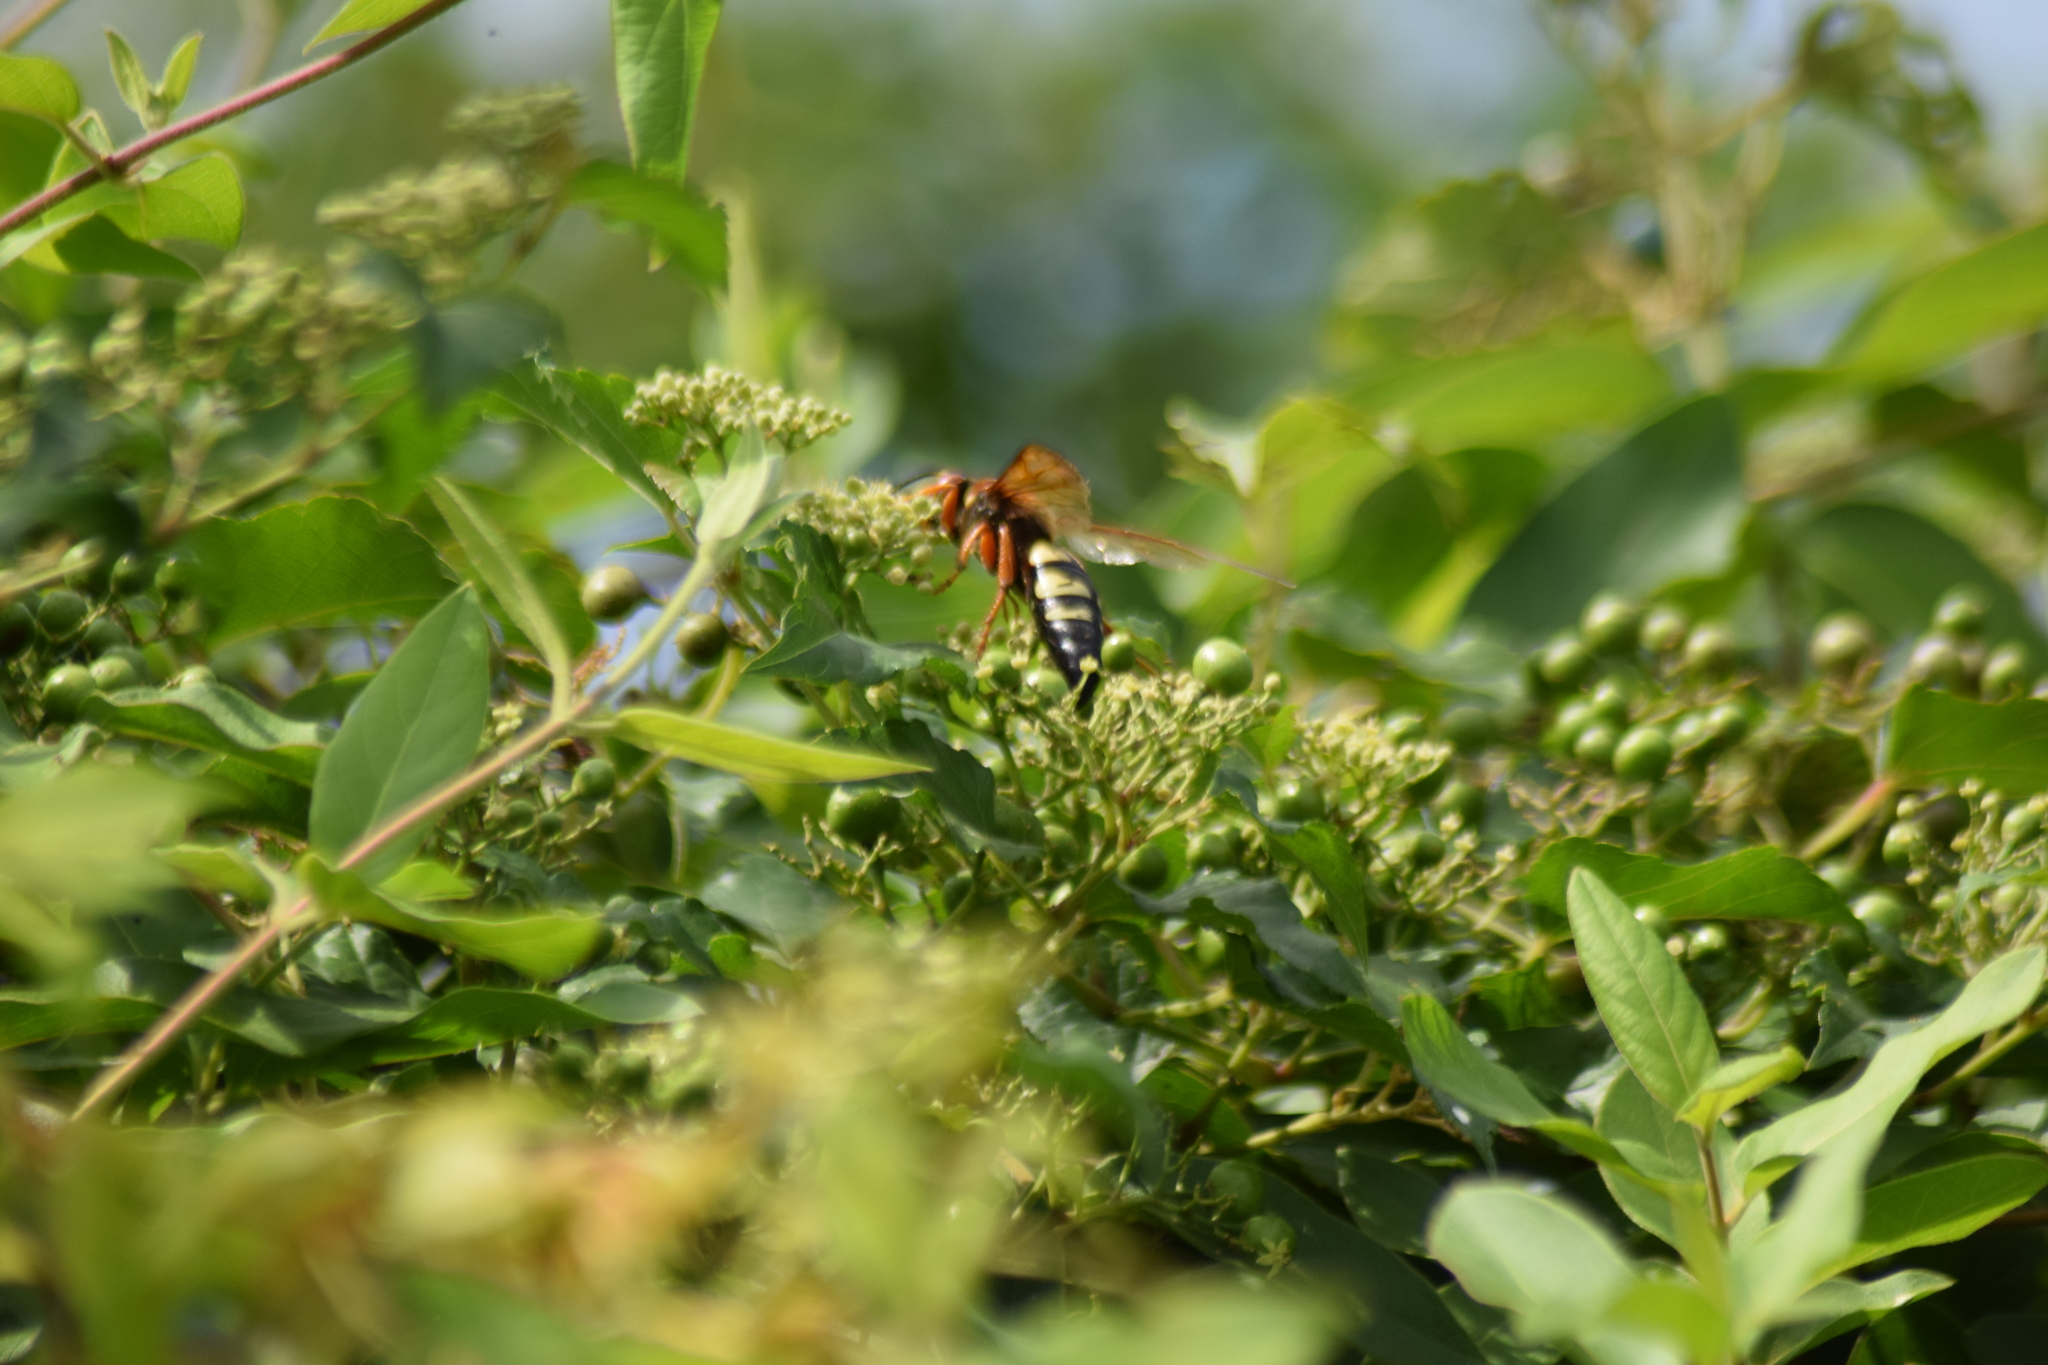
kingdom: Animalia
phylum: Arthropoda
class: Insecta
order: Hymenoptera
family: Crabronidae
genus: Sphecius
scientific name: Sphecius speciosus
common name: Cicada killer
